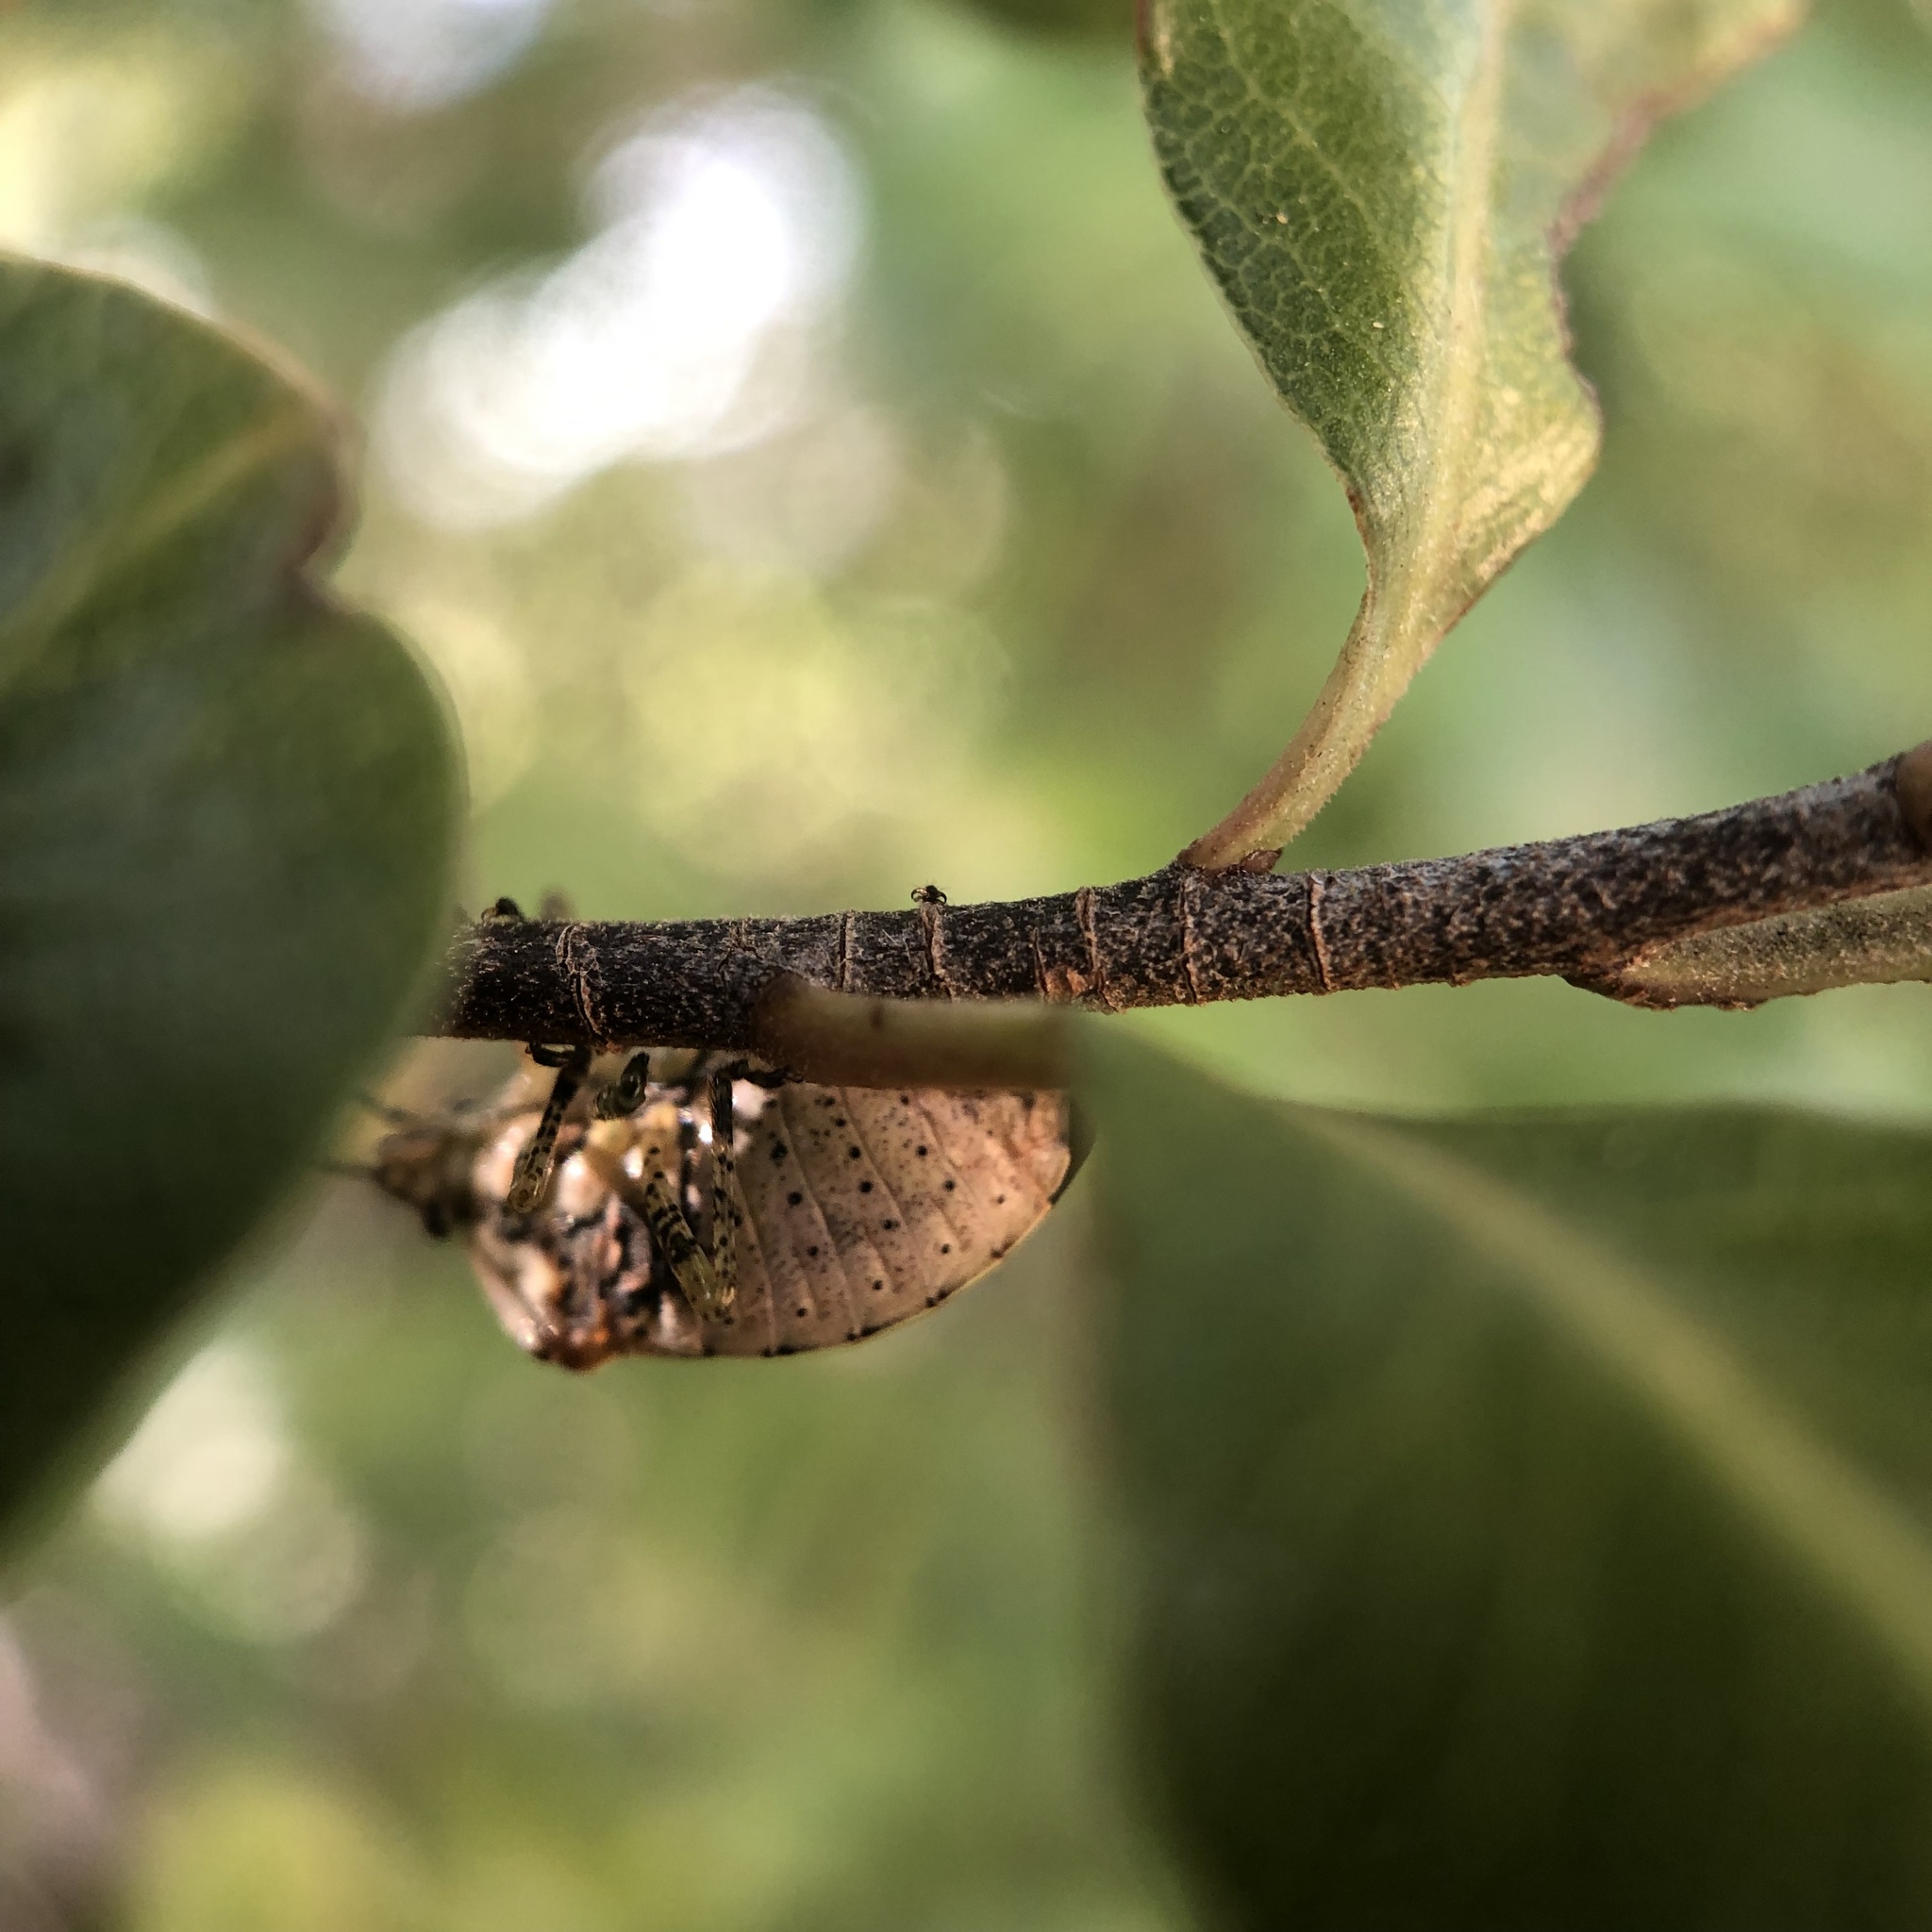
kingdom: Animalia
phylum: Arthropoda
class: Insecta
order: Hemiptera
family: Pentatomidae
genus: Monteithiella
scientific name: Monteithiella
